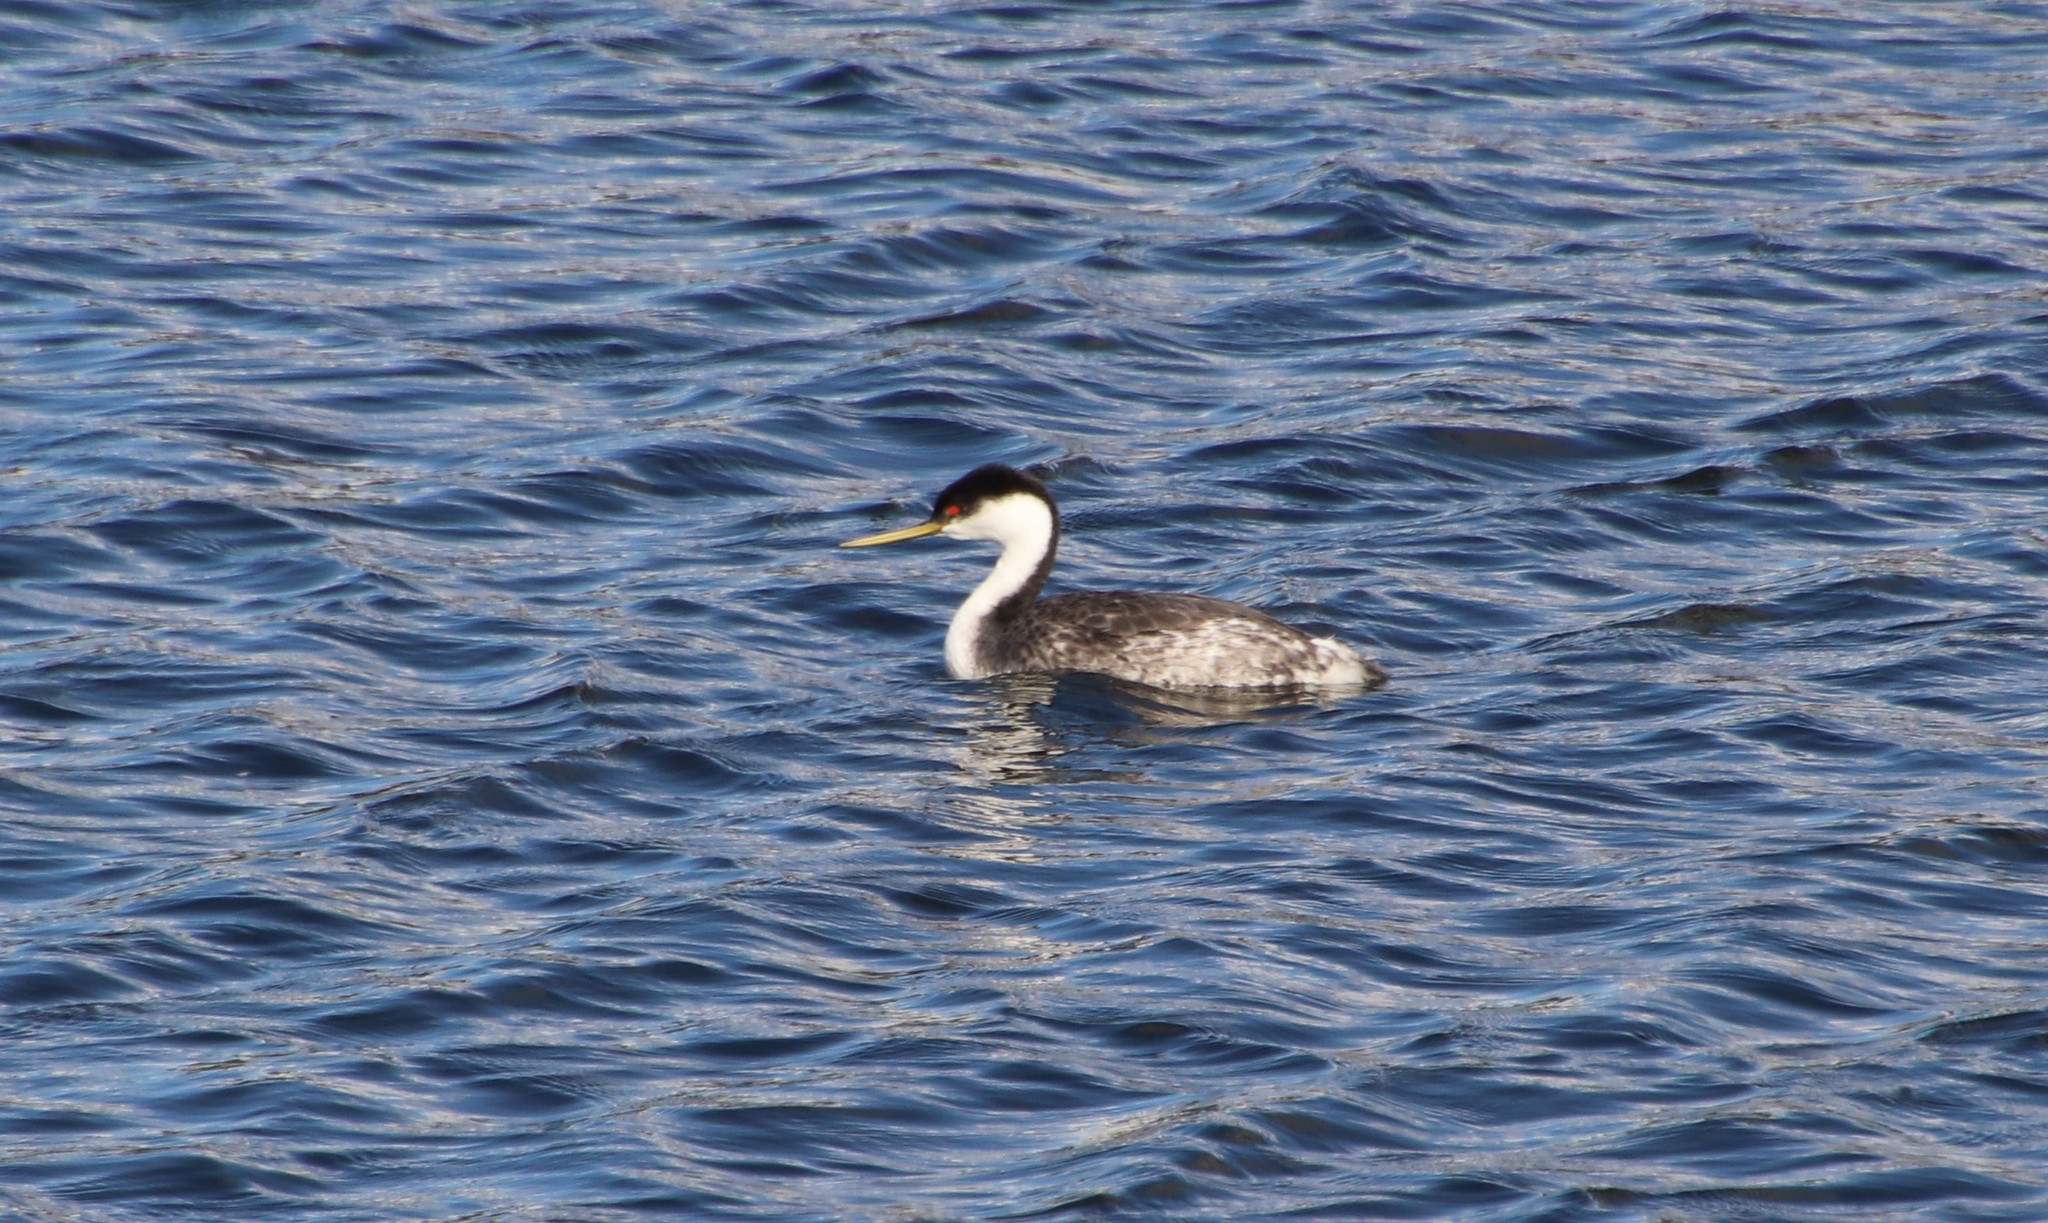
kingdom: Animalia
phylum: Chordata
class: Aves
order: Podicipediformes
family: Podicipedidae
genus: Aechmophorus
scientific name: Aechmophorus occidentalis
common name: Western grebe
